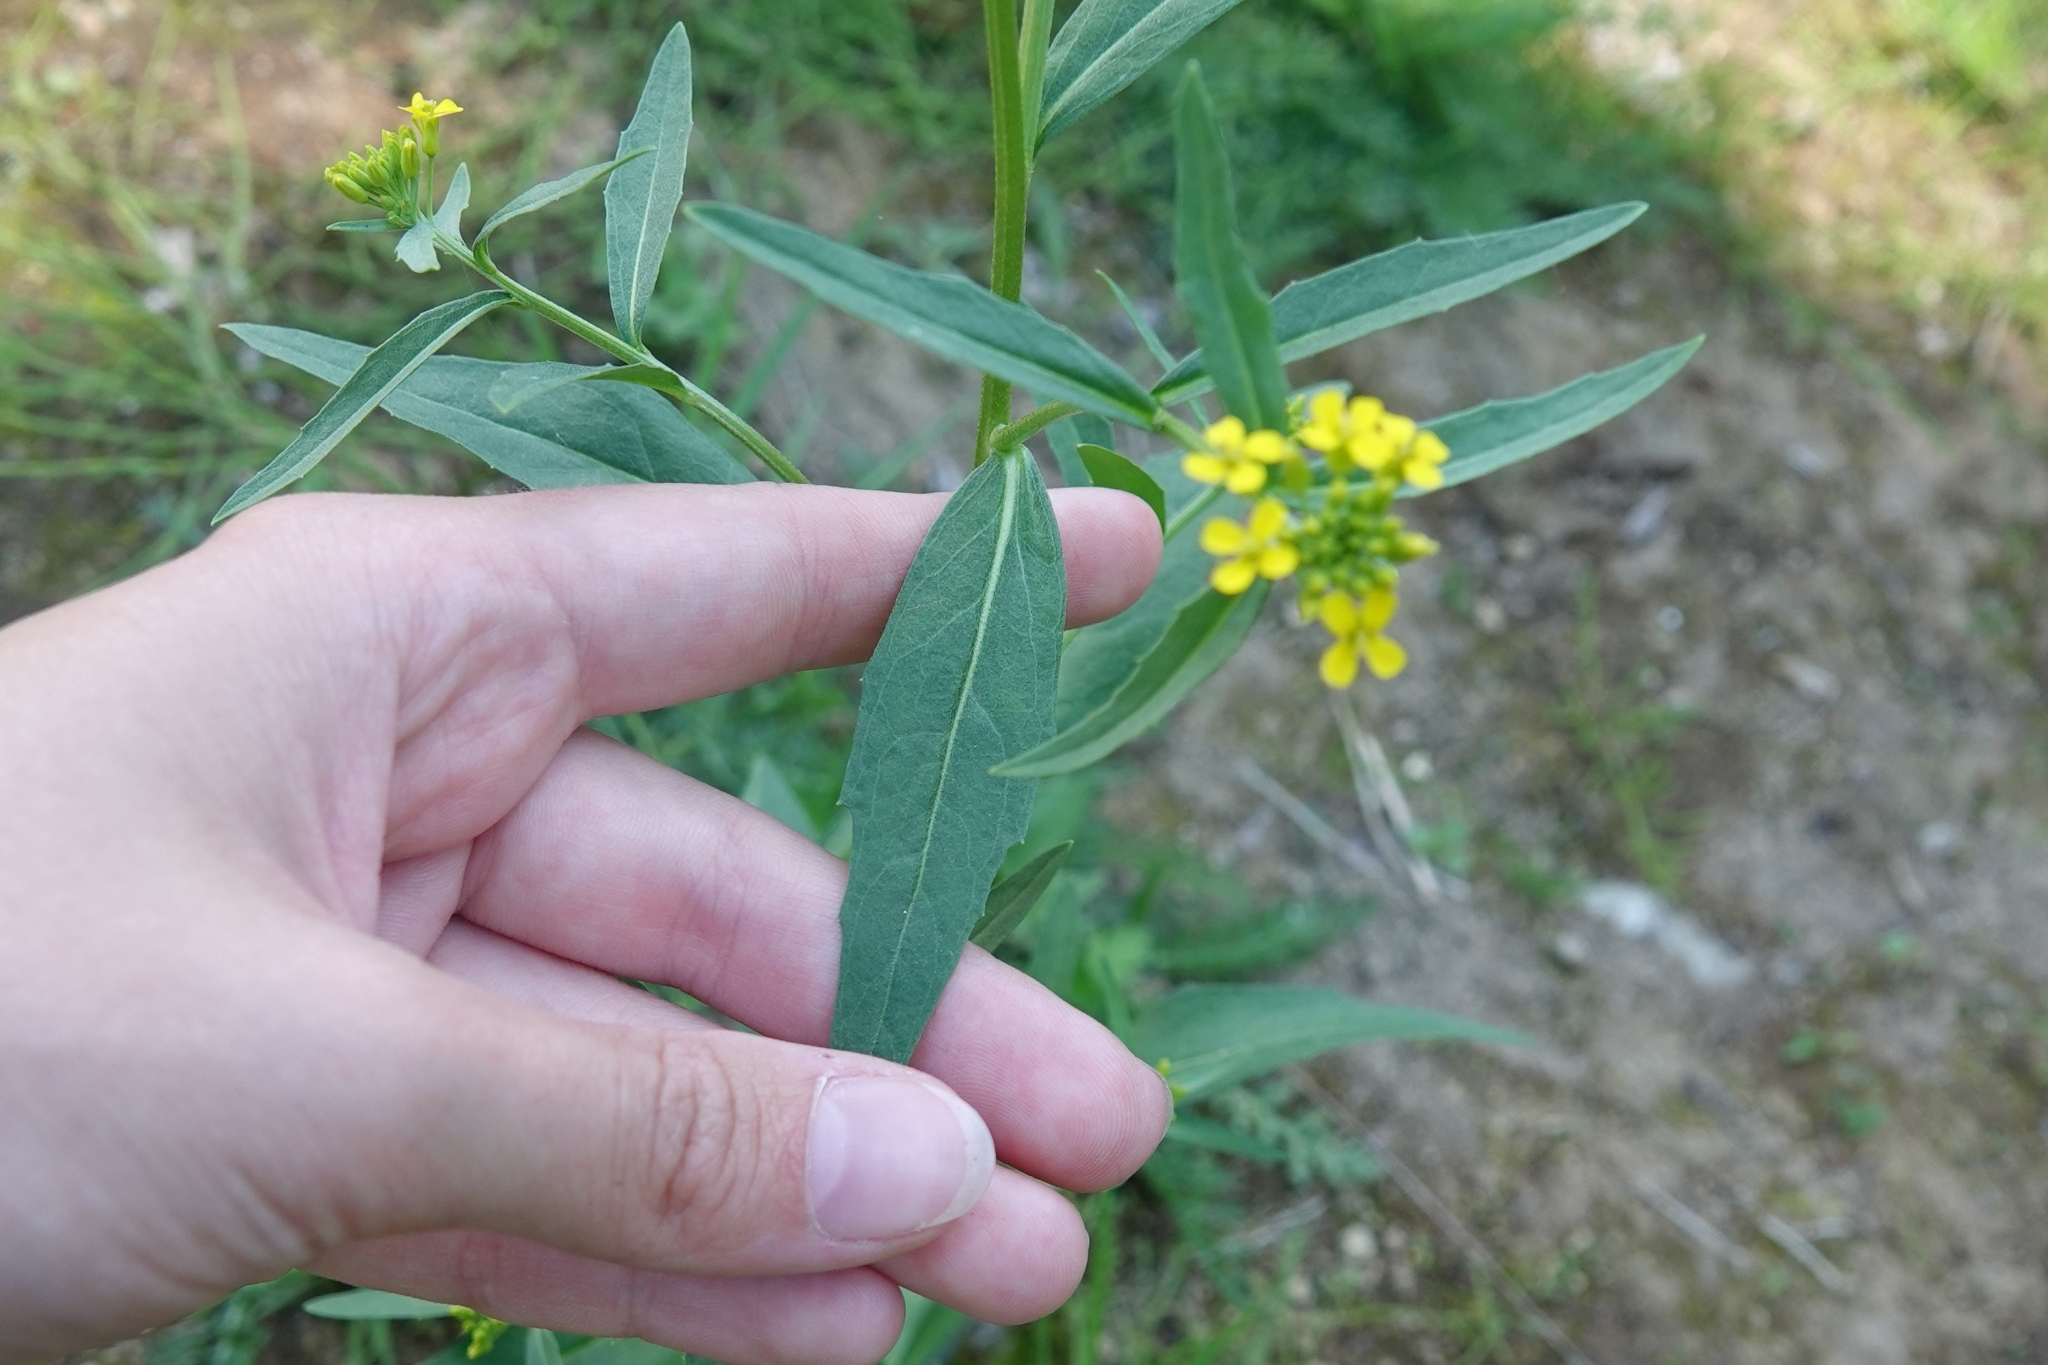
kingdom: Plantae
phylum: Tracheophyta
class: Magnoliopsida
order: Brassicales
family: Brassicaceae
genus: Erysimum
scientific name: Erysimum cheiranthoides
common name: Treacle mustard
